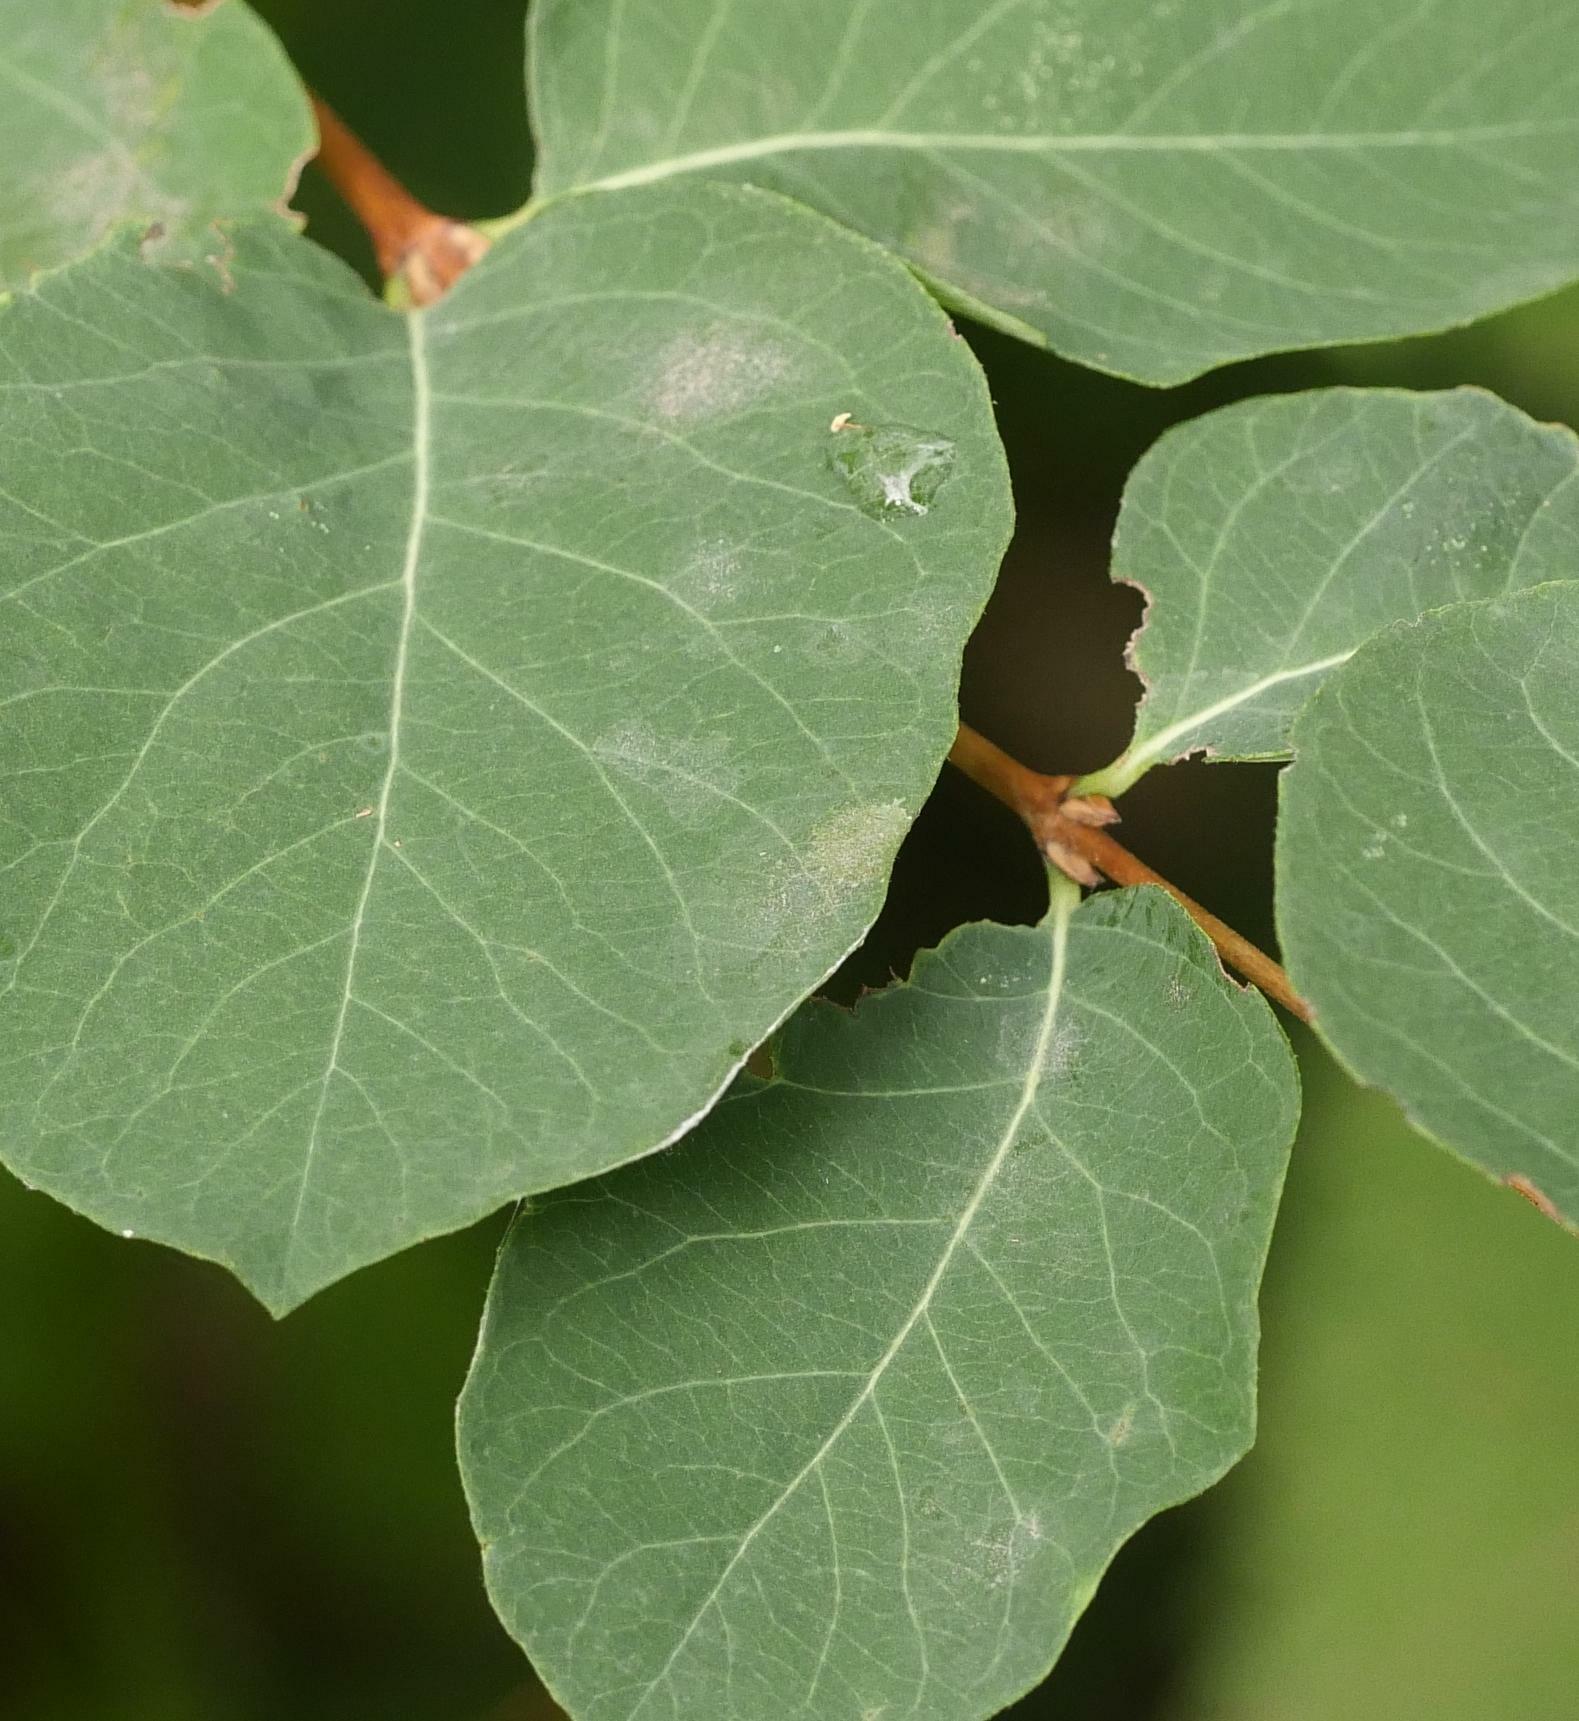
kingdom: Fungi
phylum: Ascomycota
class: Leotiomycetes
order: Helotiales
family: Erysiphaceae
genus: Erysiphe
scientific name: Erysiphe symphoricarpi
